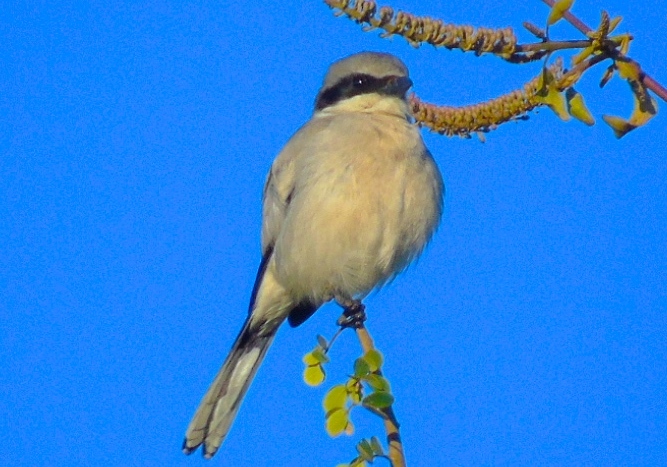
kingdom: Animalia
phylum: Chordata
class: Aves
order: Passeriformes
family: Laniidae
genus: Lanius
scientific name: Lanius ludovicianus
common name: Loggerhead shrike
